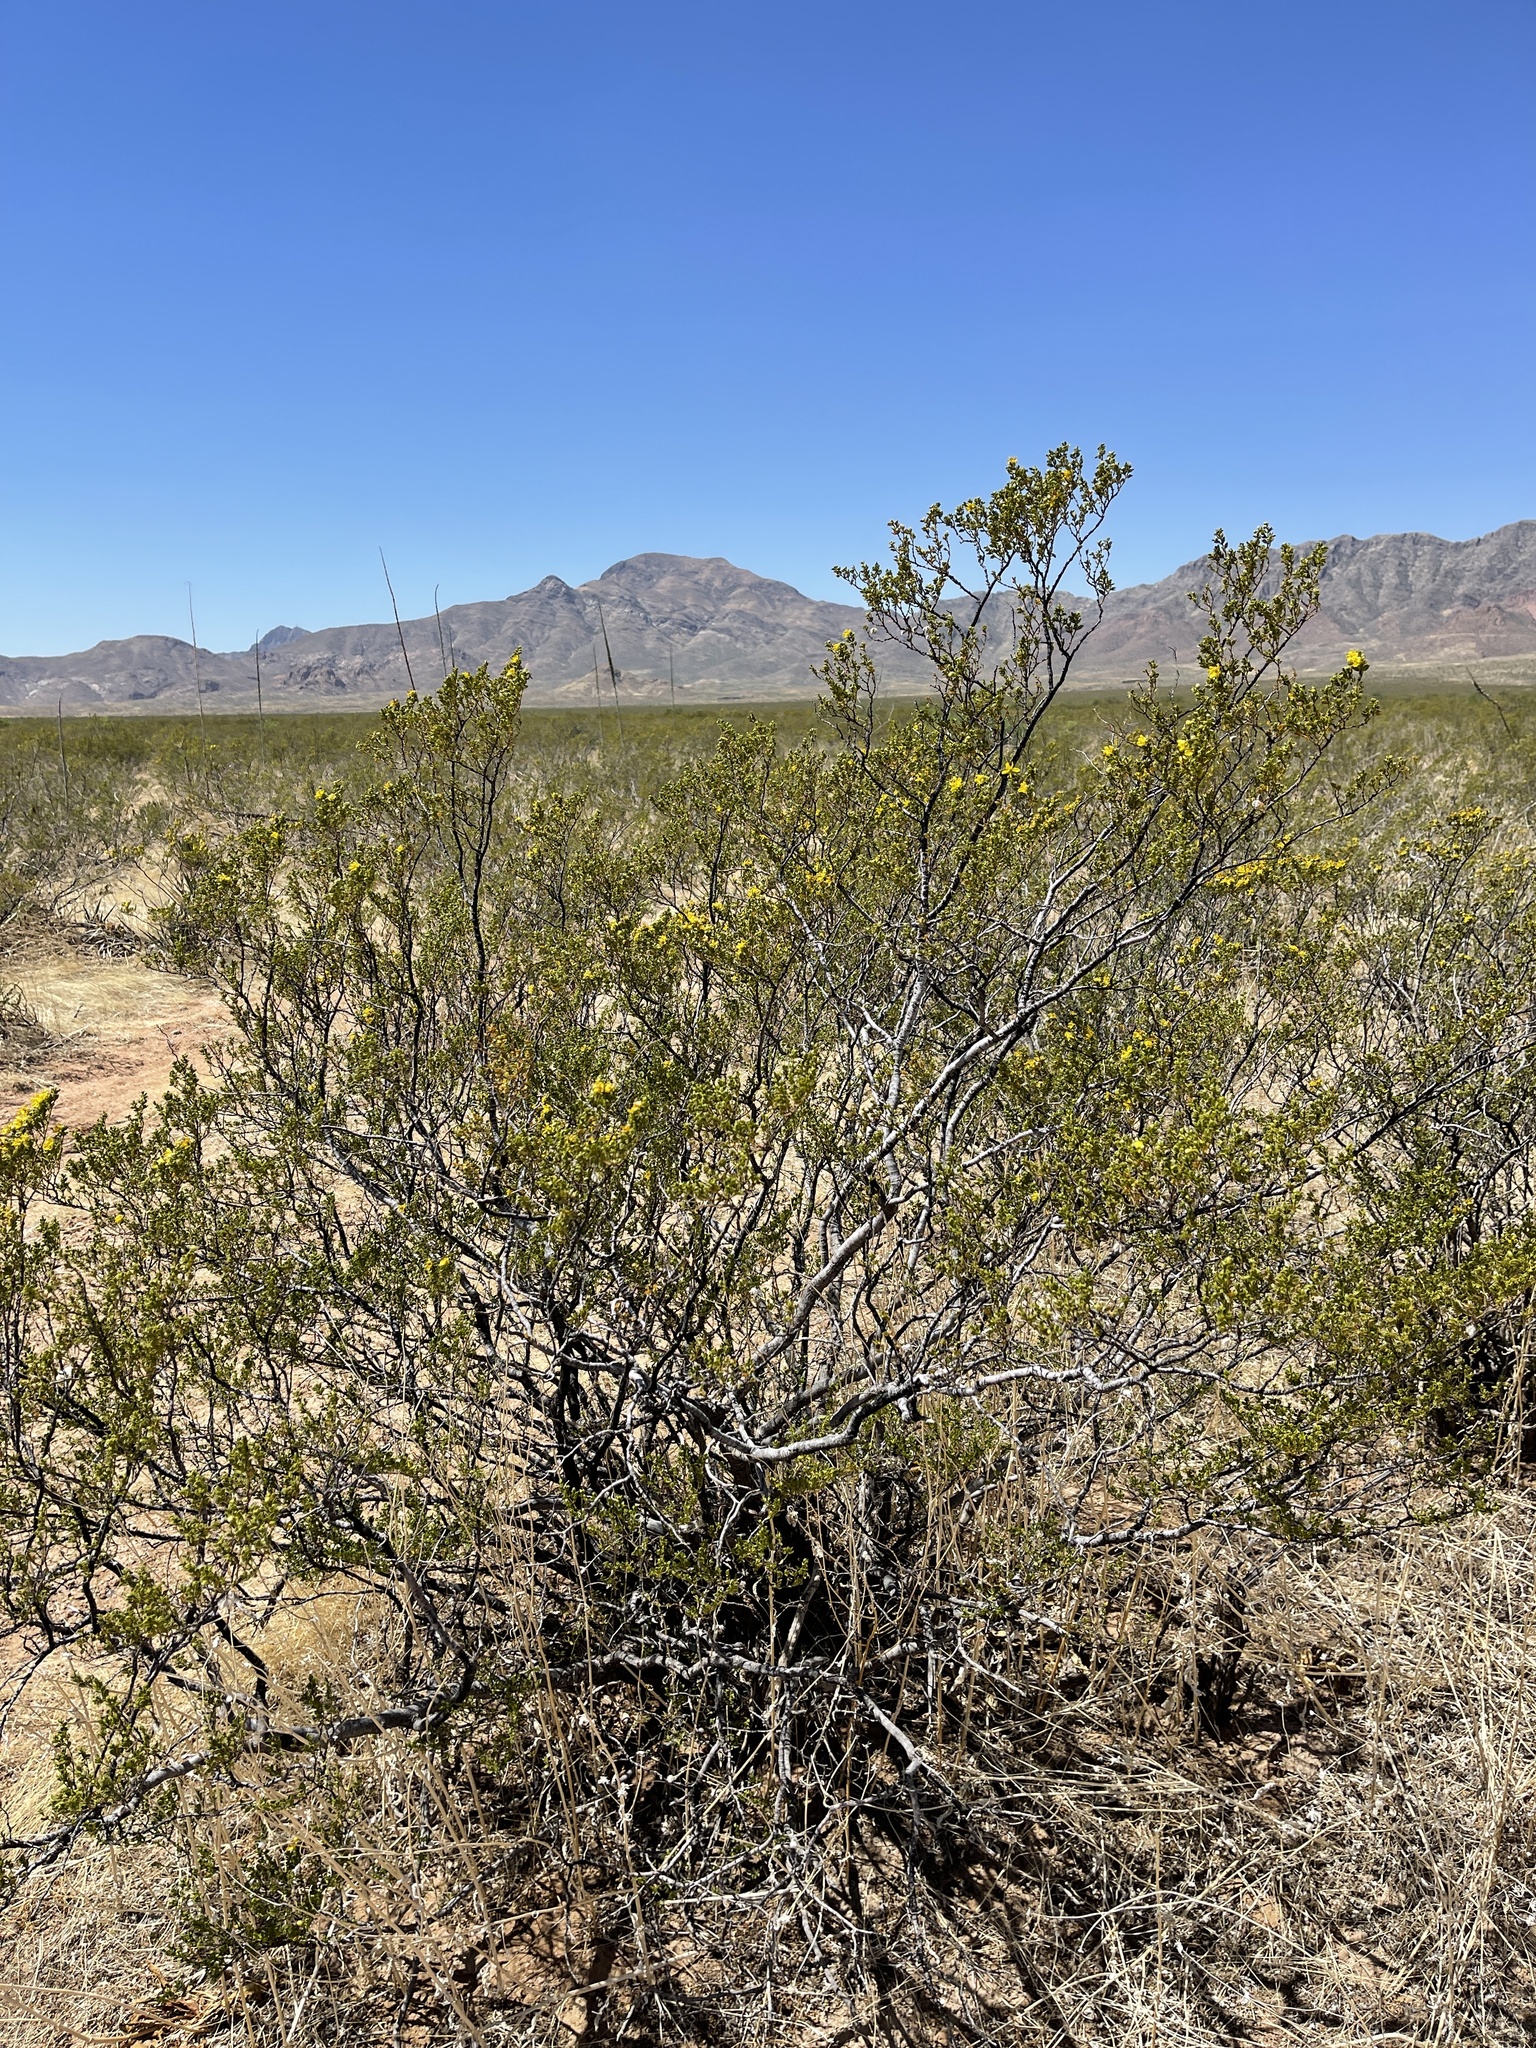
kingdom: Plantae
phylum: Tracheophyta
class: Magnoliopsida
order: Zygophyllales
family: Zygophyllaceae
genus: Larrea
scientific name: Larrea tridentata
